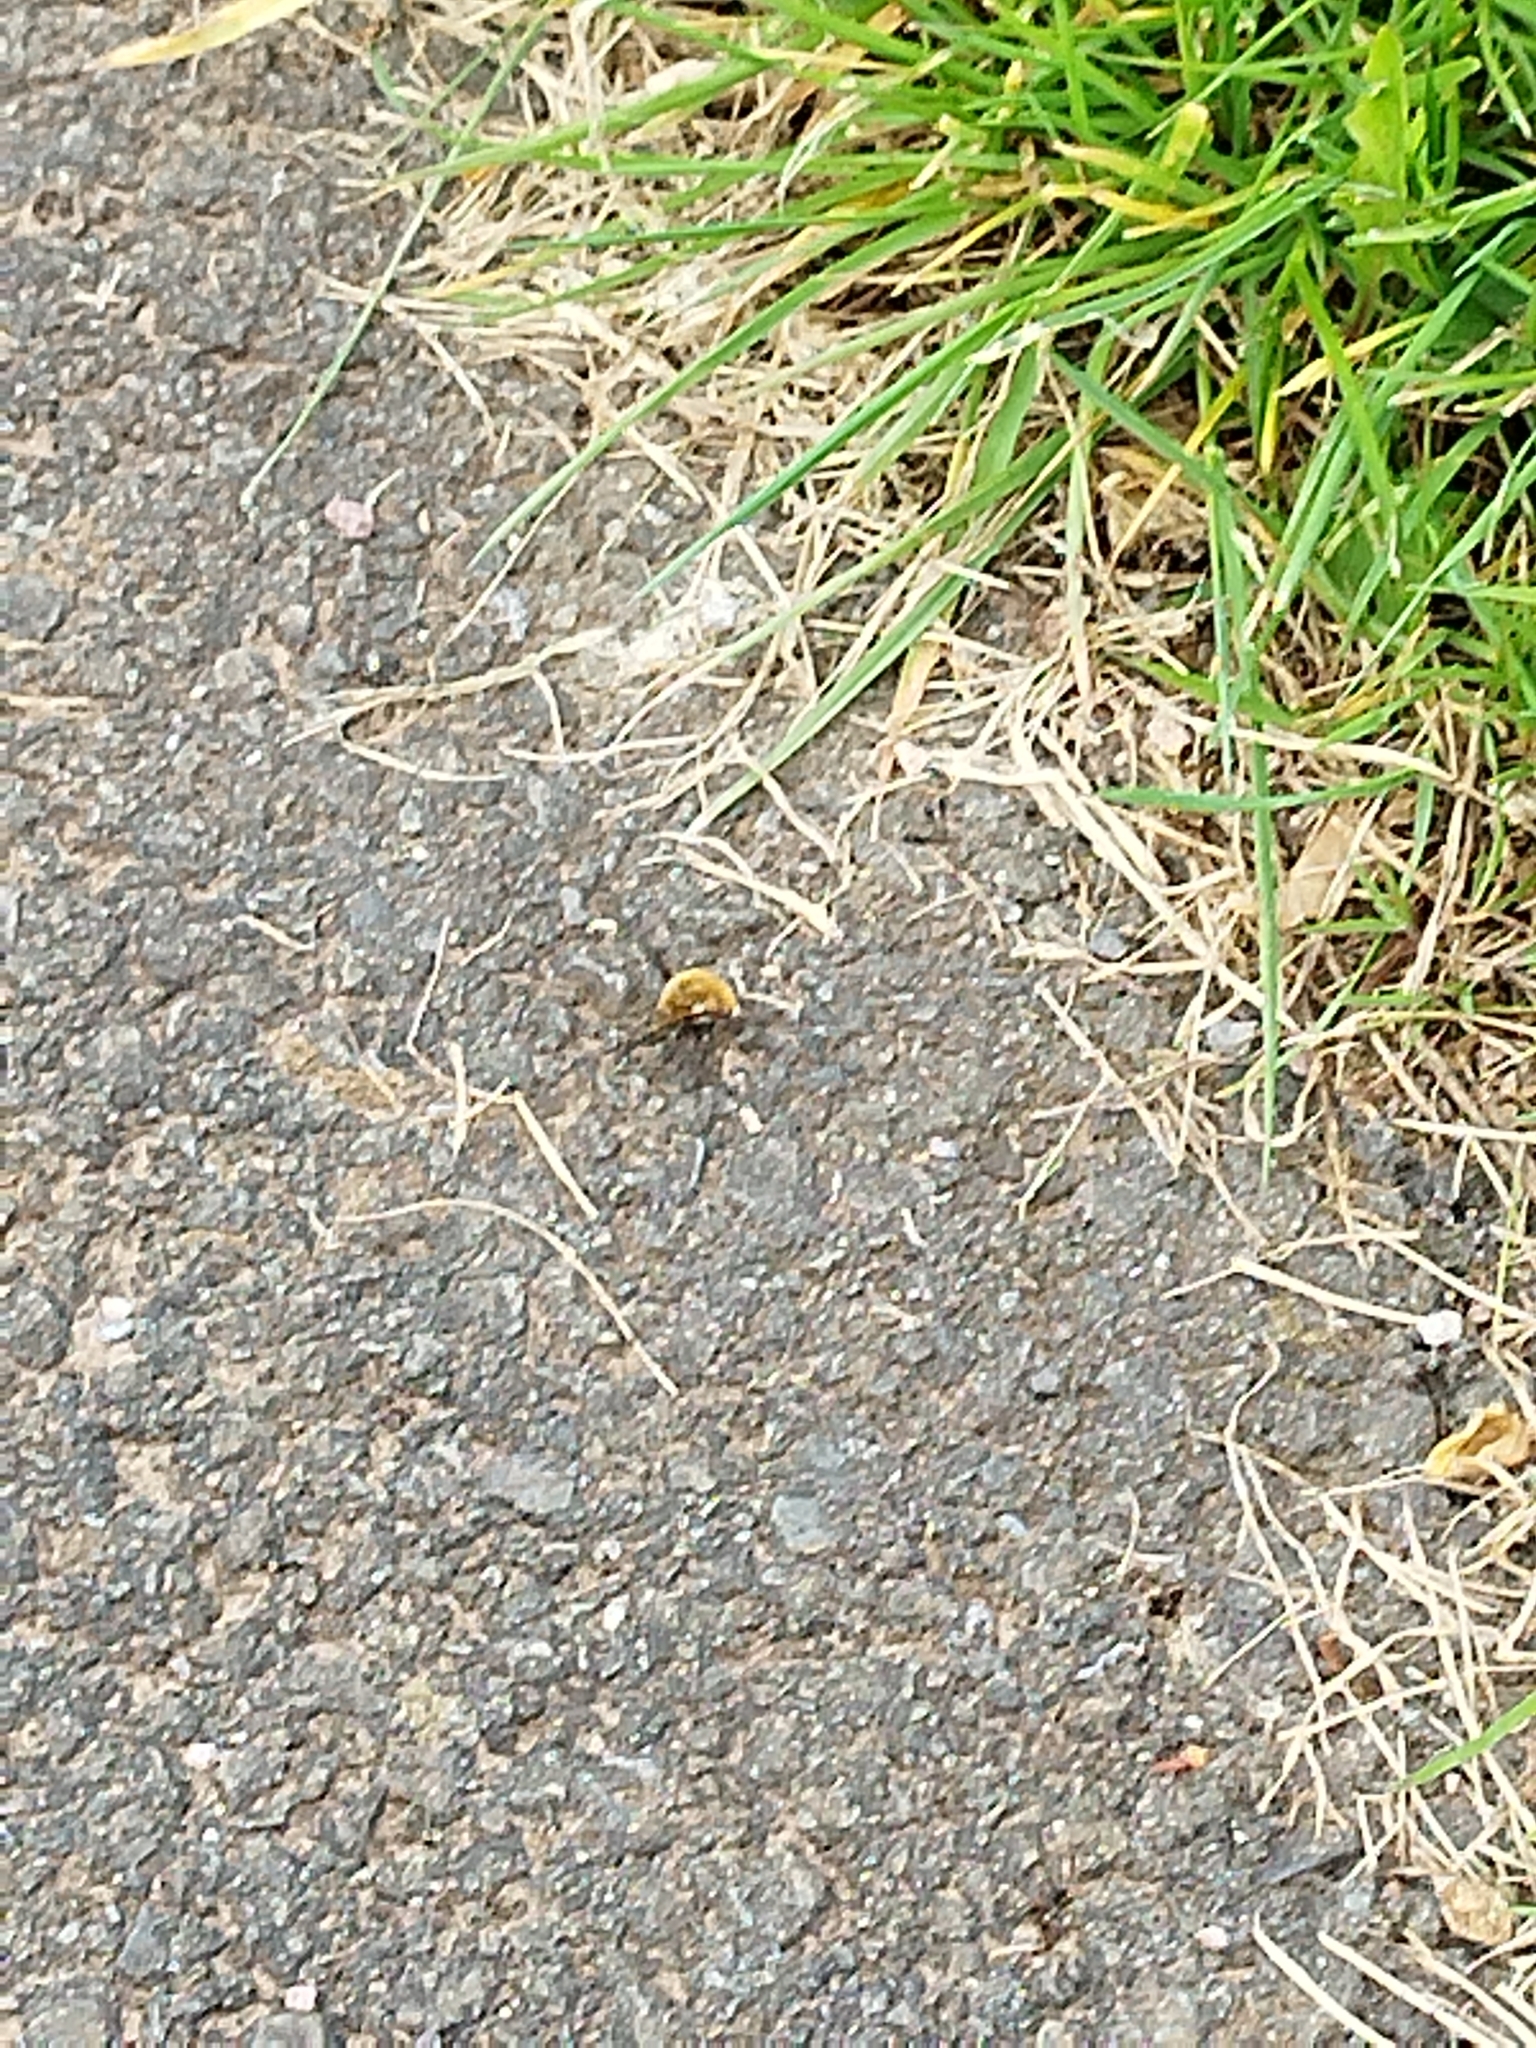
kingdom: Animalia
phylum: Arthropoda
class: Insecta
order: Diptera
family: Bombyliidae
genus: Bombylius
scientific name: Bombylius major
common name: Bee fly
